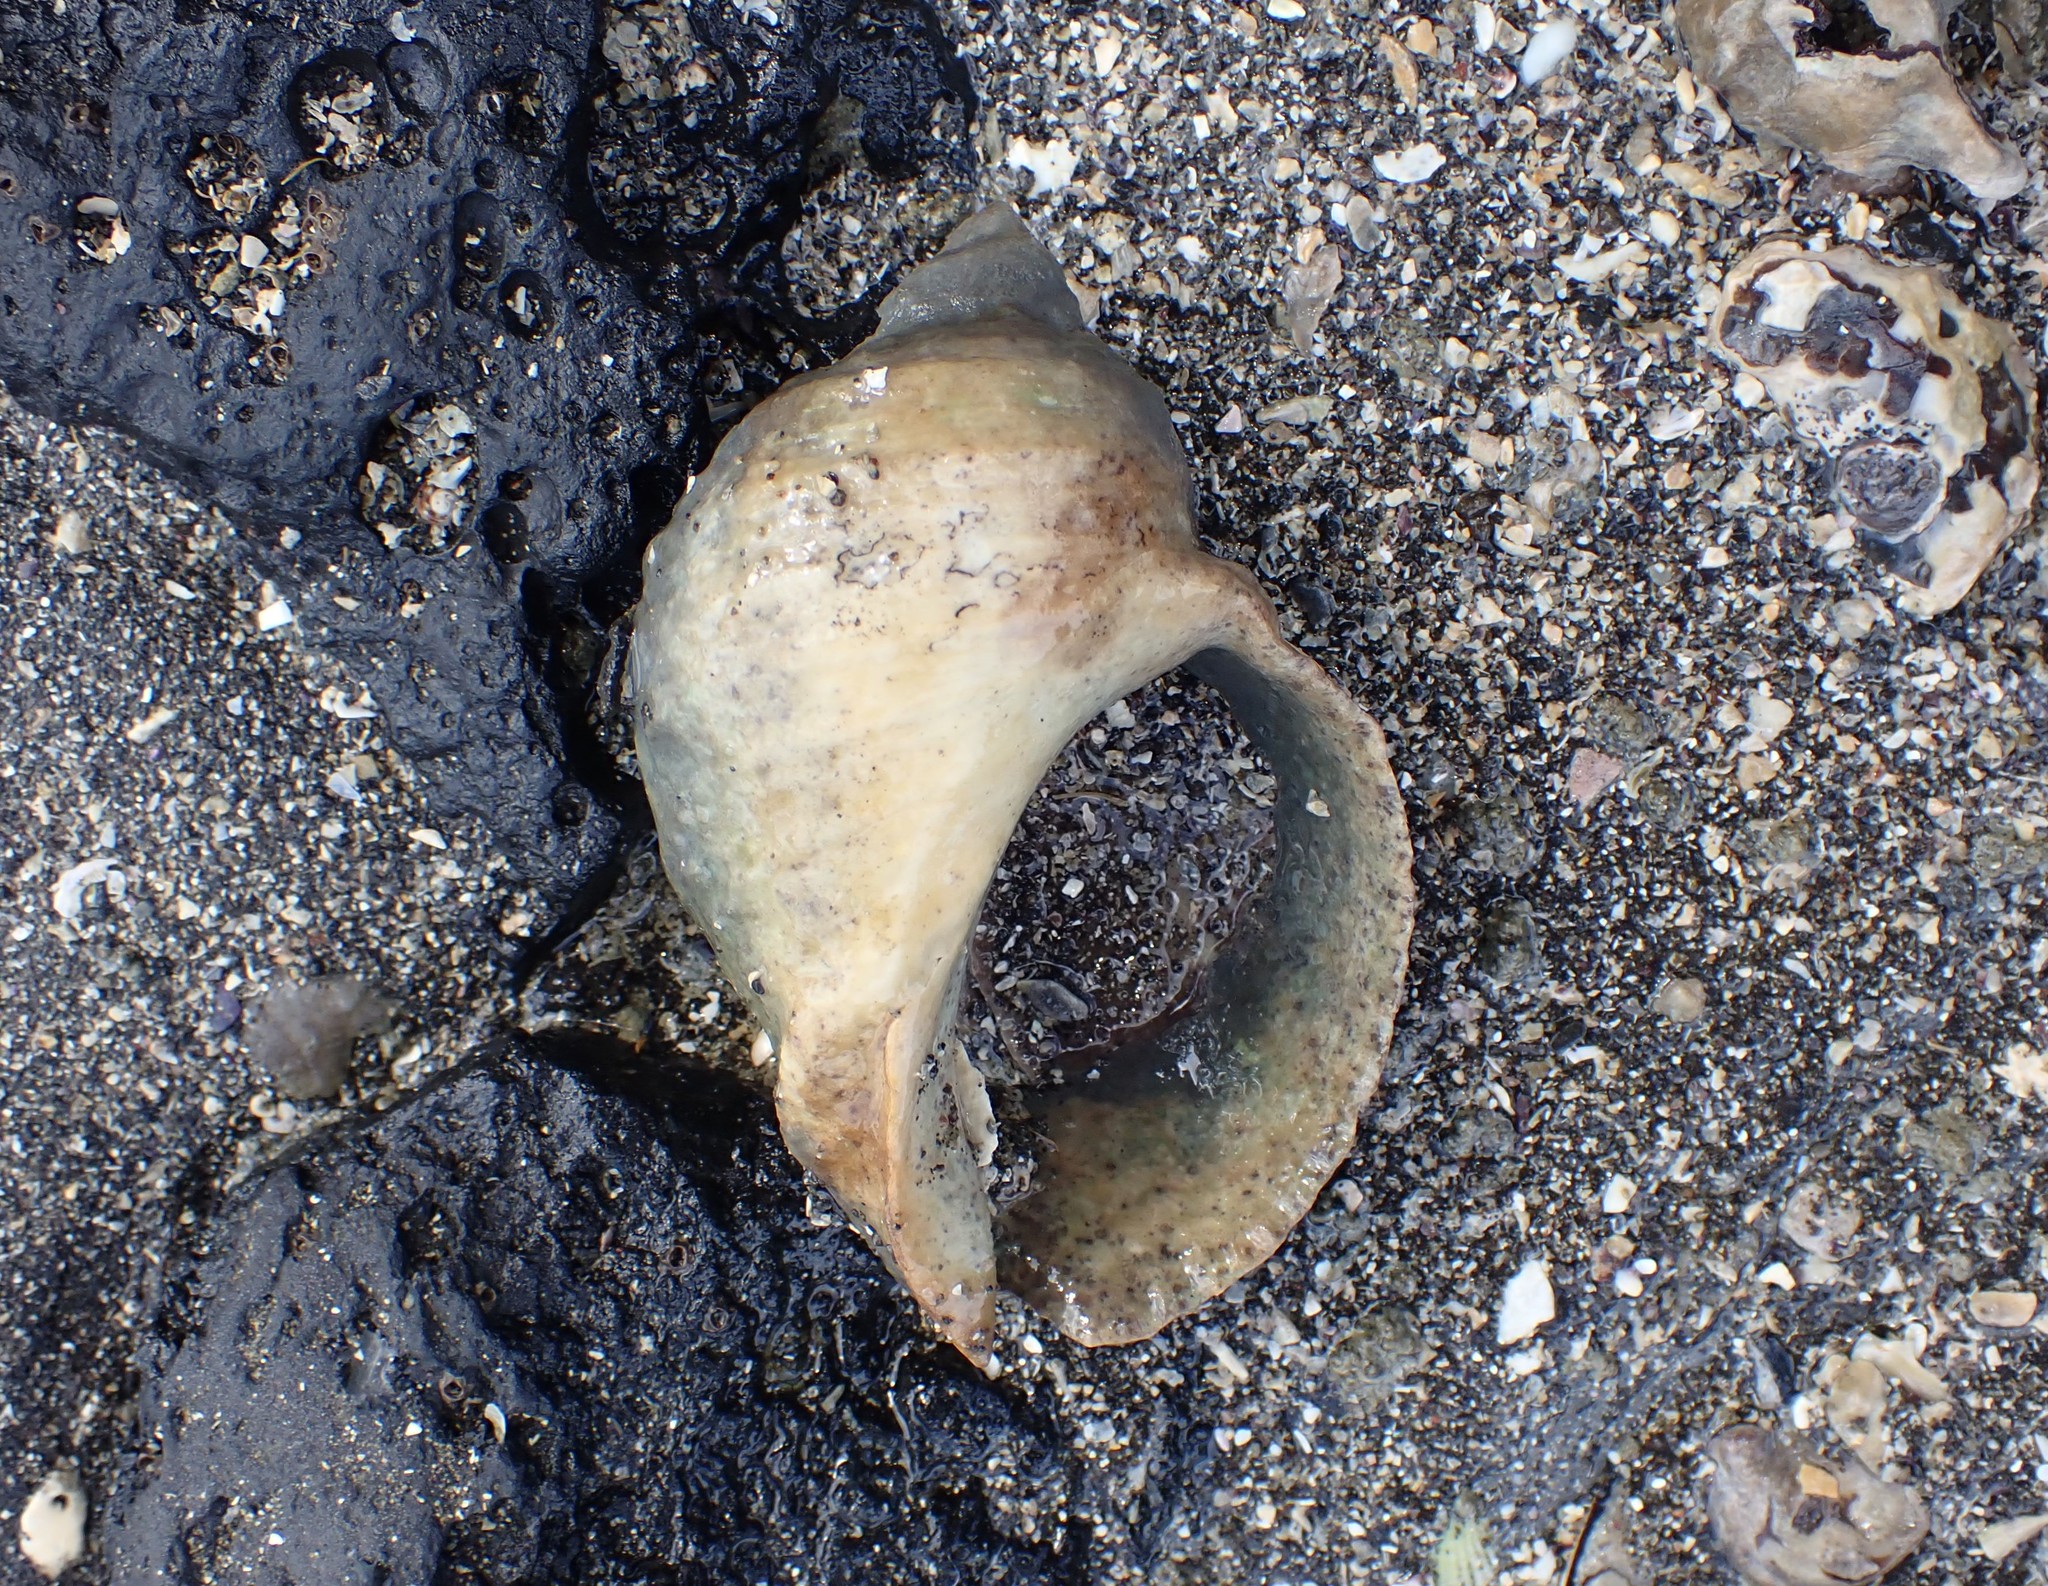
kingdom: Animalia
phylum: Mollusca
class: Gastropoda
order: Neogastropoda
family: Muricidae
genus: Dicathais
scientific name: Dicathais orbita
